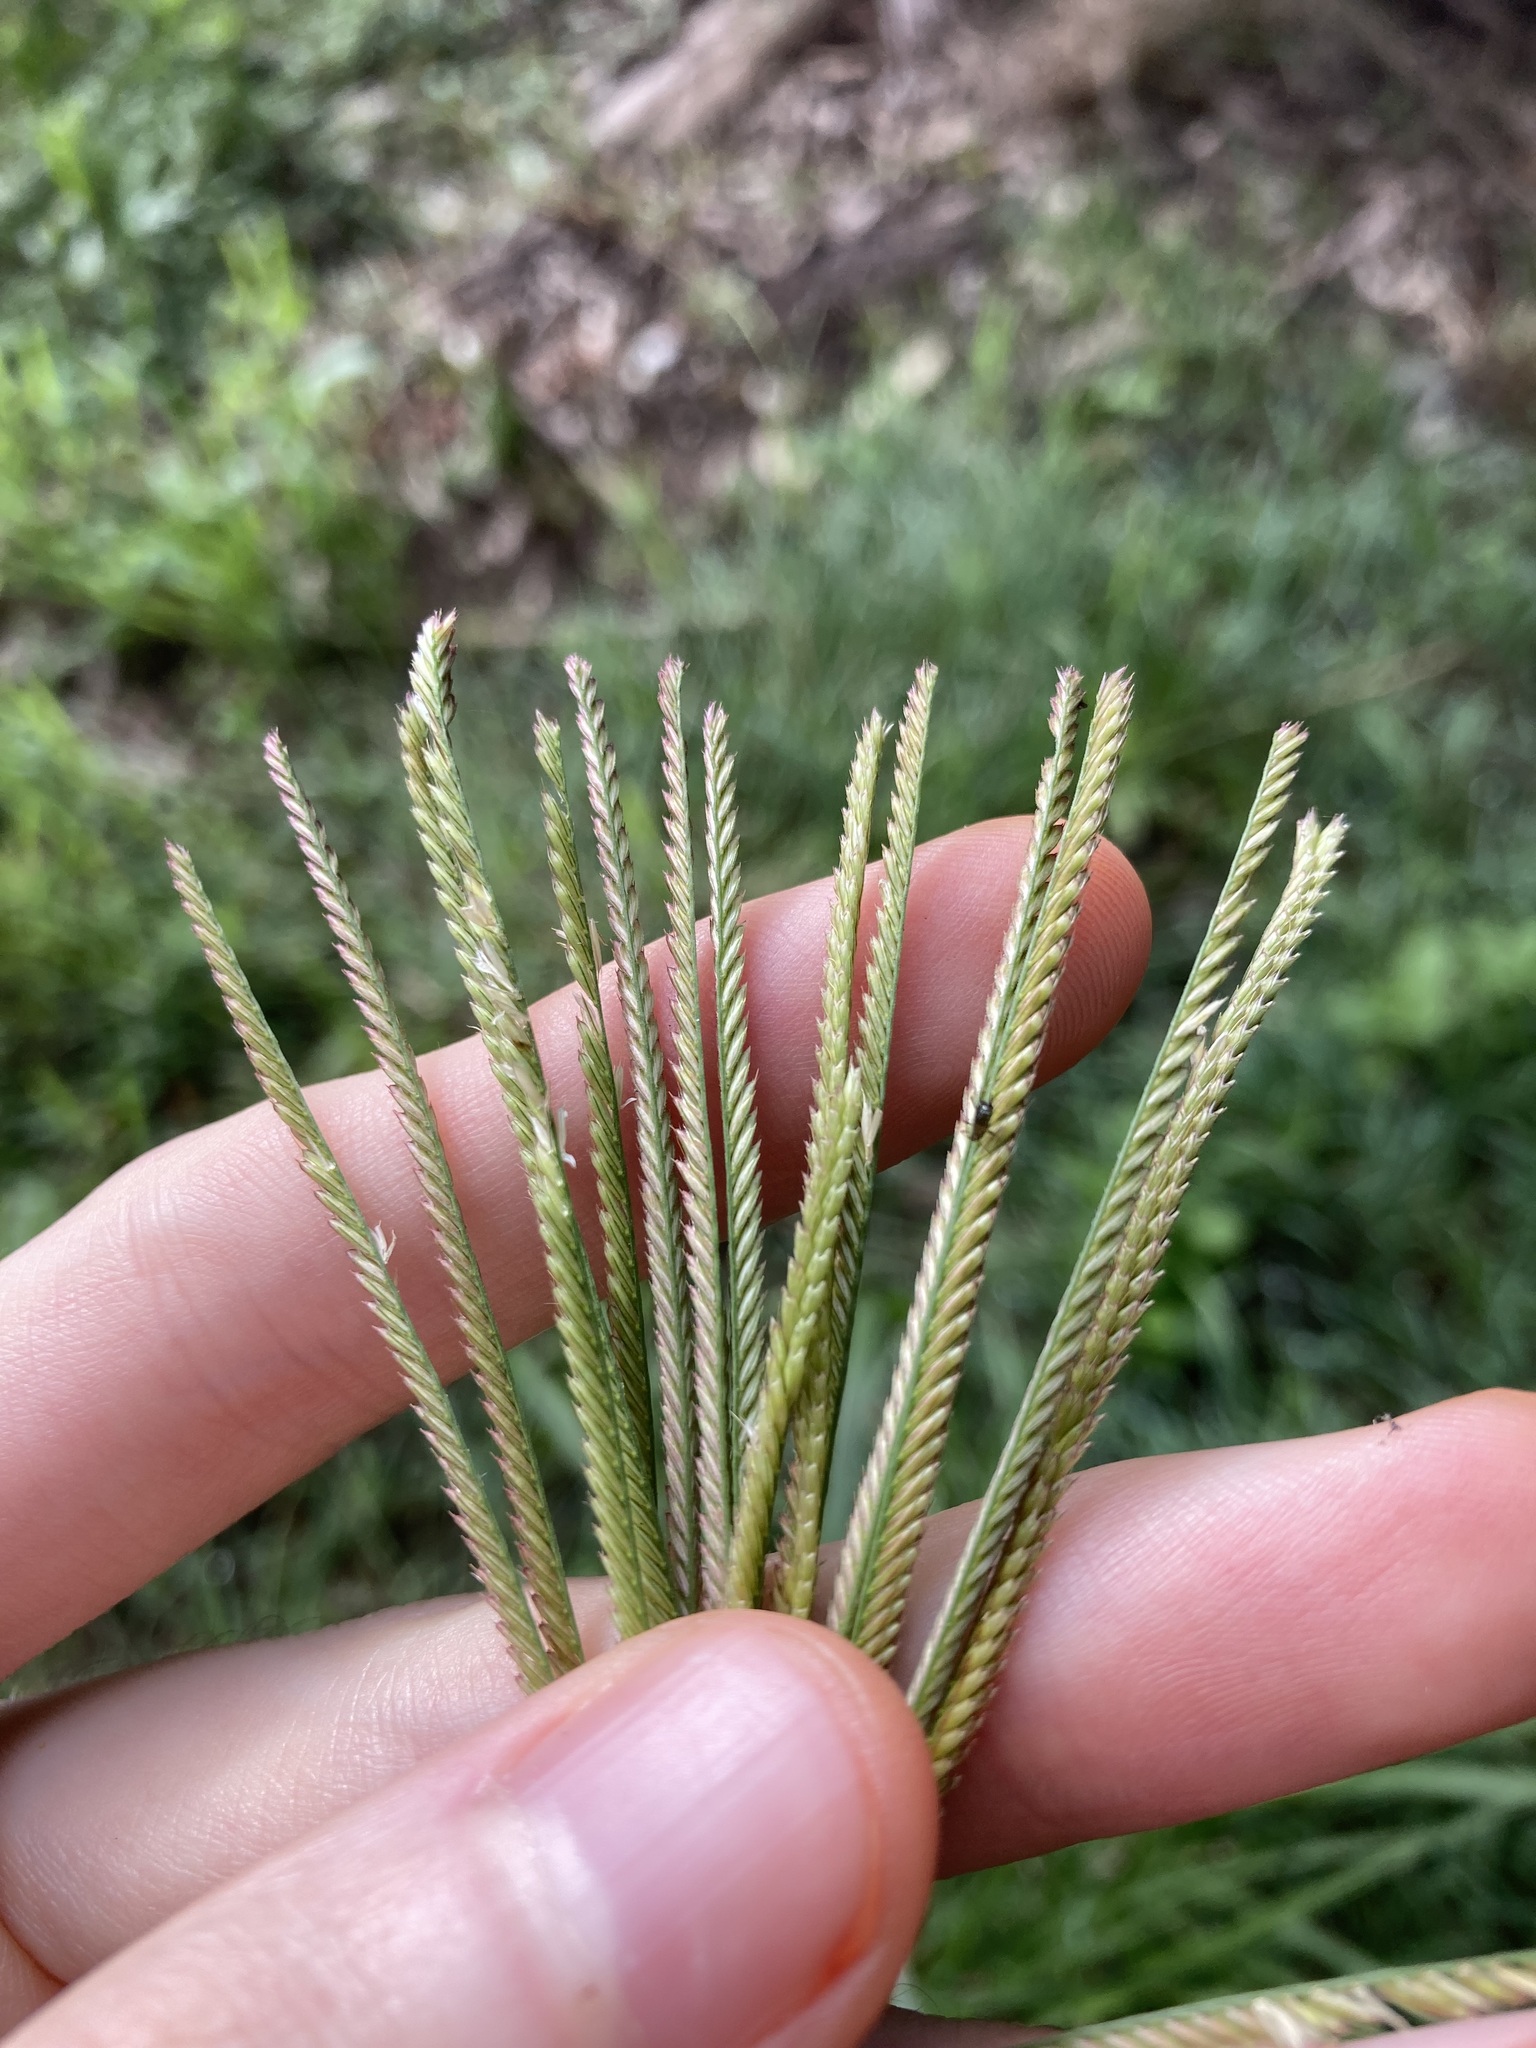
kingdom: Plantae
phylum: Tracheophyta
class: Liliopsida
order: Poales
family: Poaceae
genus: Chloris
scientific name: Chloris gayana
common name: Rhodes grass
